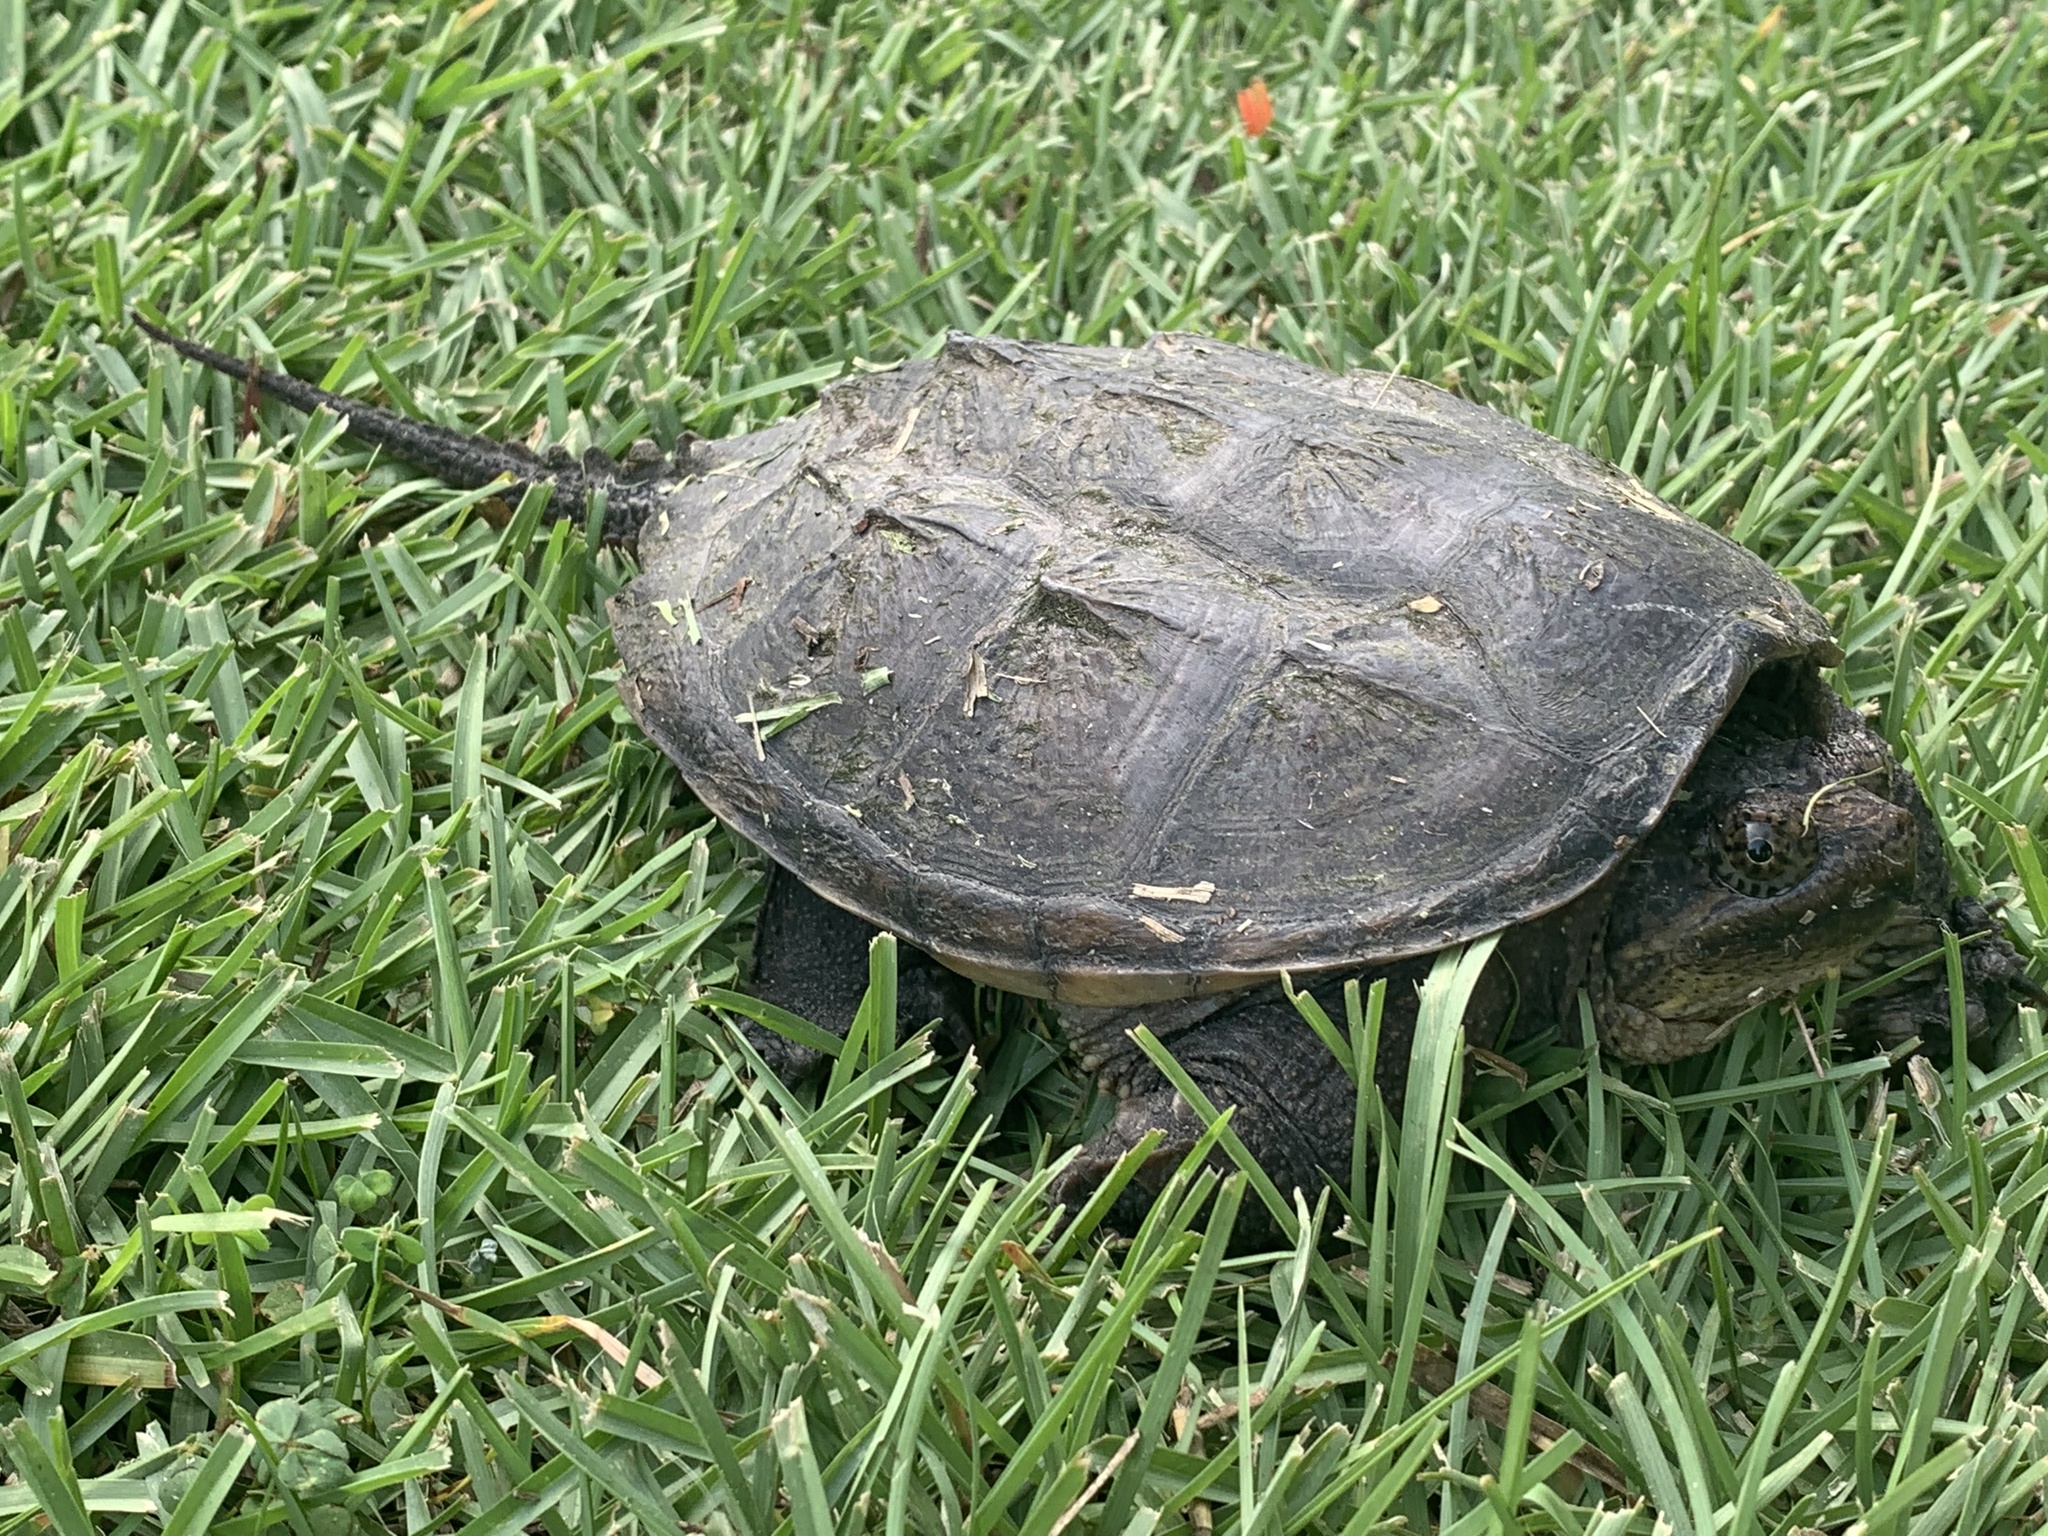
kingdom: Animalia
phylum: Chordata
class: Testudines
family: Chelydridae
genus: Chelydra
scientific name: Chelydra serpentina
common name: Common snapping turtle
